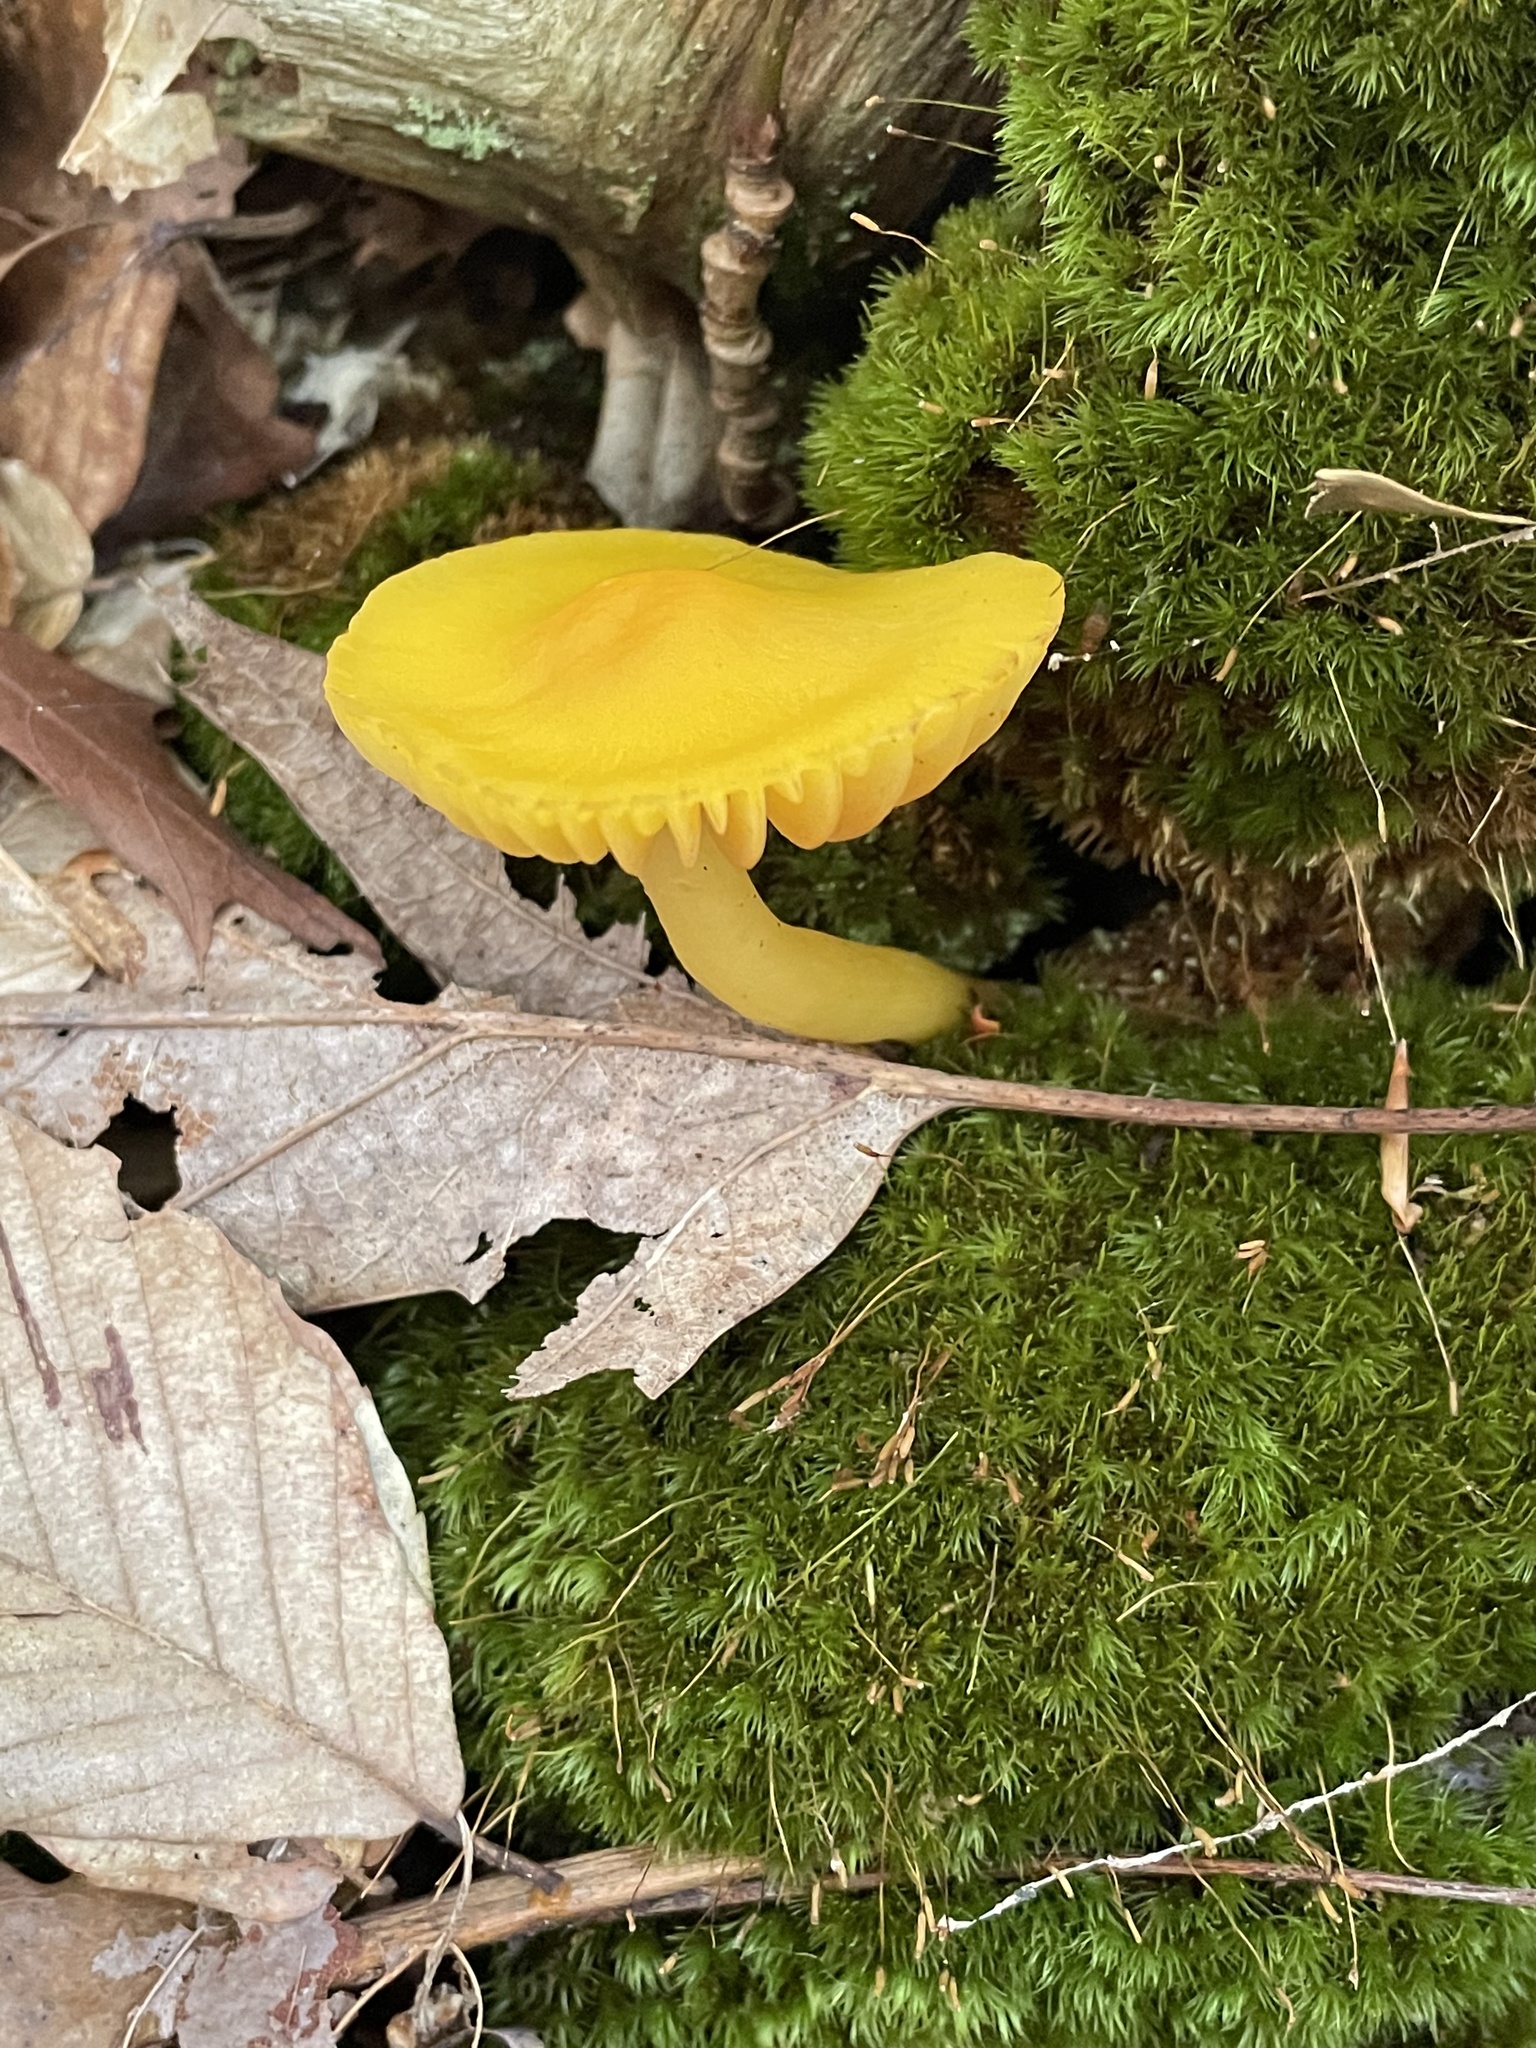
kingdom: Fungi
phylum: Basidiomycota
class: Agaricomycetes
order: Agaricales
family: Hygrophoraceae
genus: Humidicutis
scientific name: Humidicutis marginata
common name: Orange gilled waxcap
